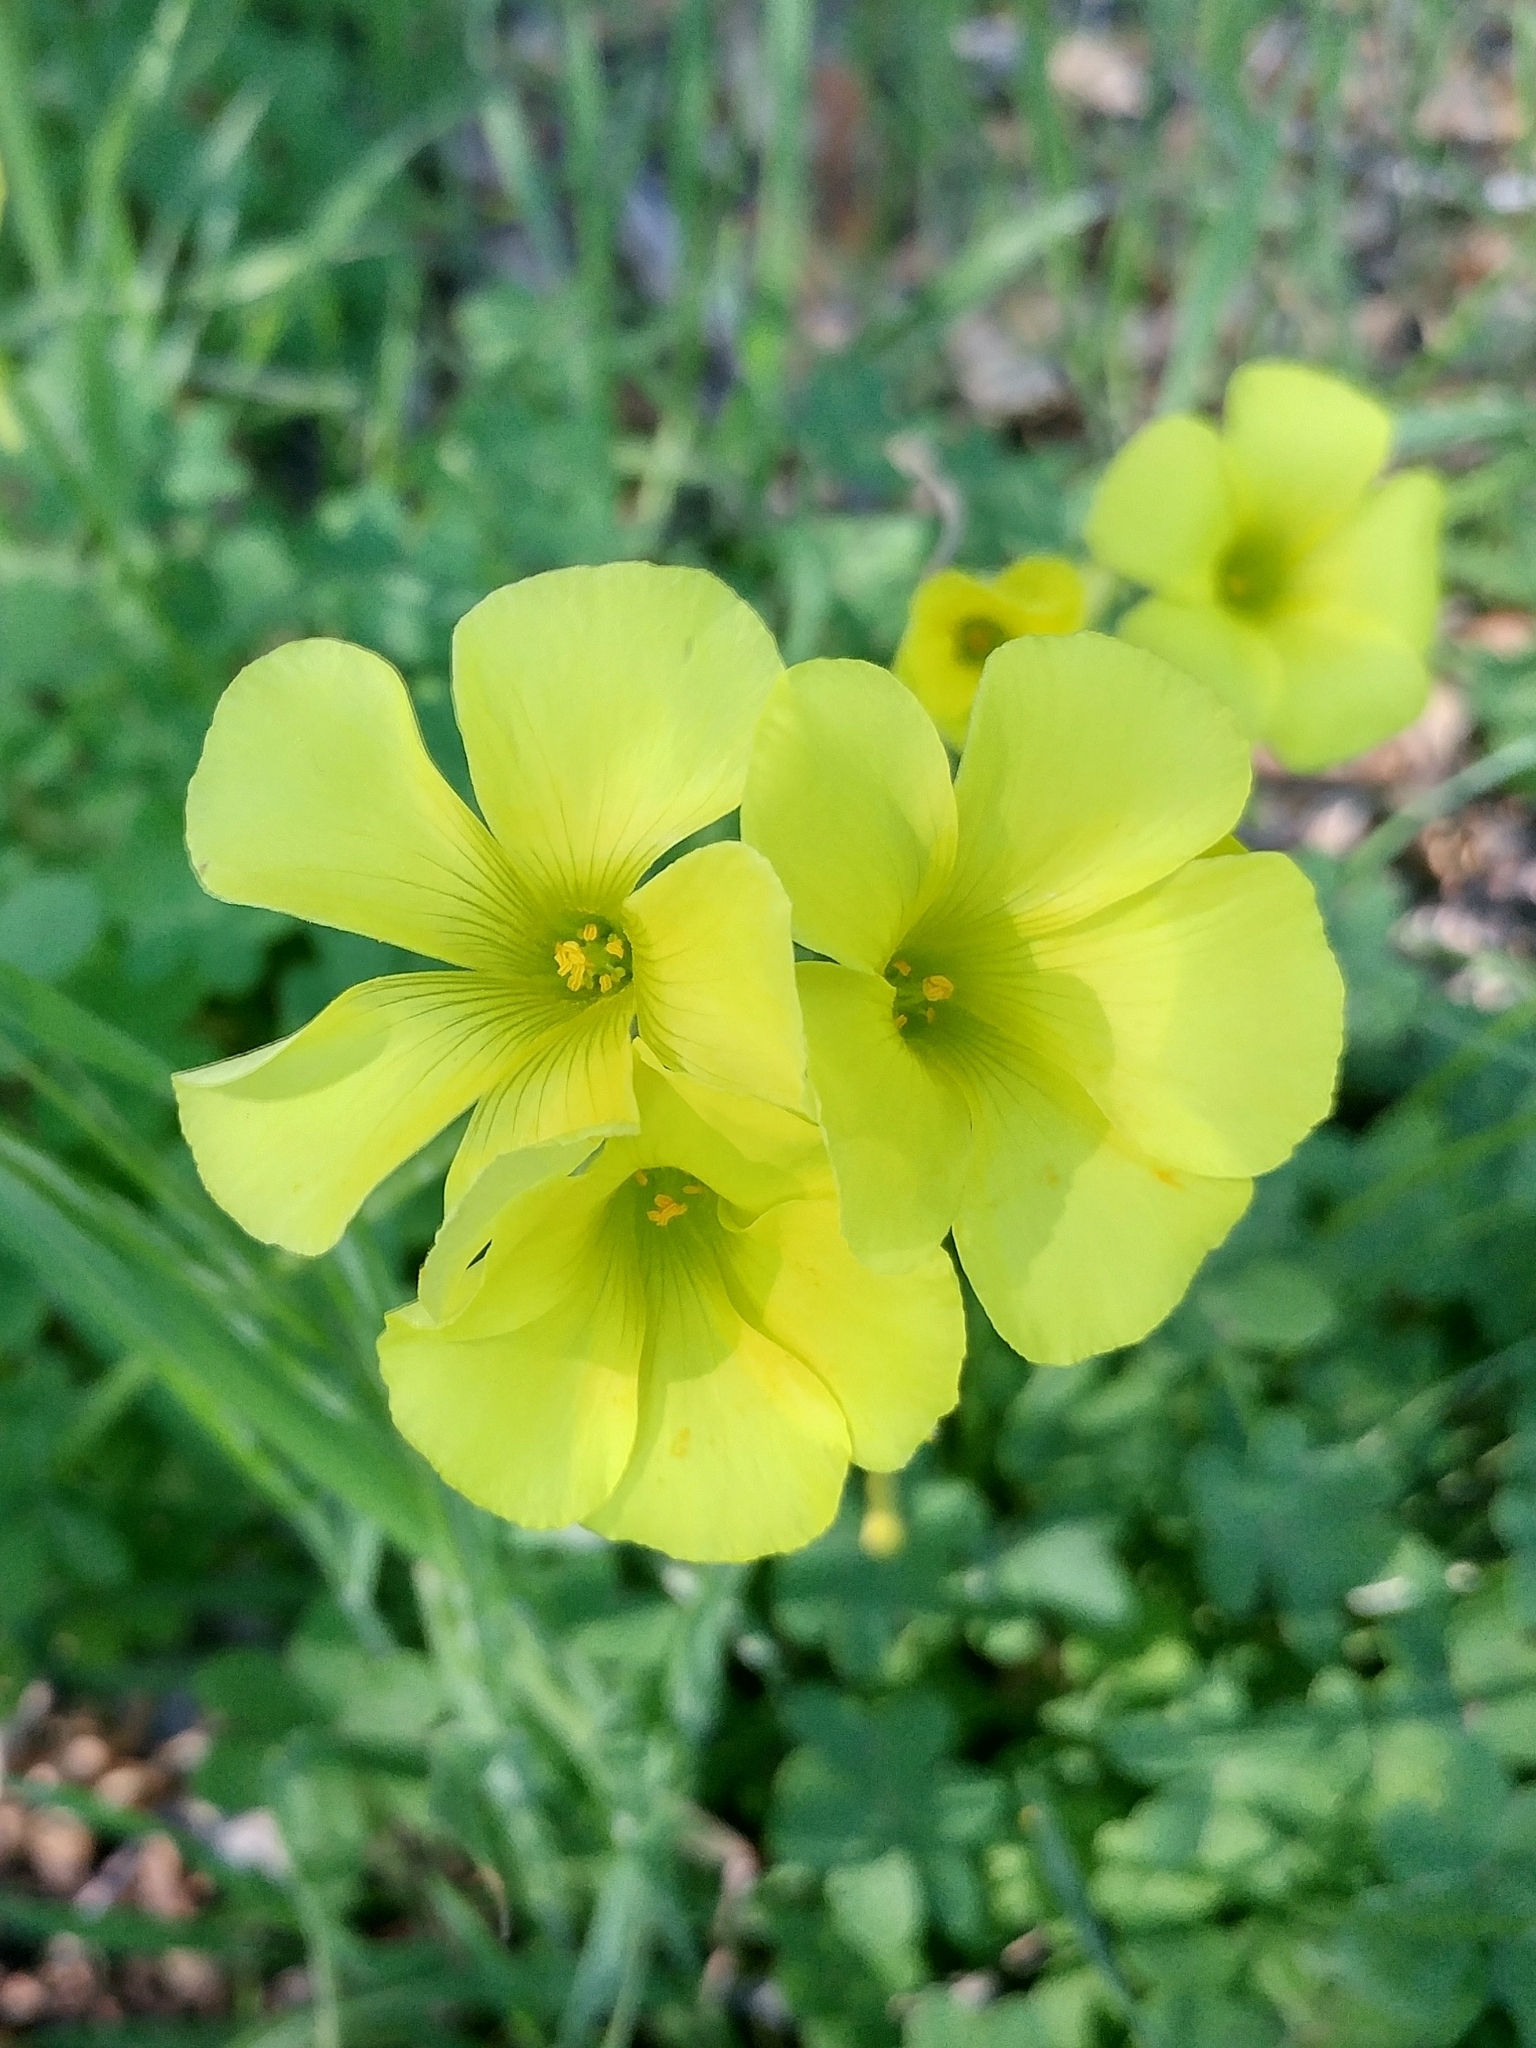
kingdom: Plantae
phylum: Tracheophyta
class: Magnoliopsida
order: Oxalidales
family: Oxalidaceae
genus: Oxalis
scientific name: Oxalis pes-caprae
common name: Bermuda-buttercup
